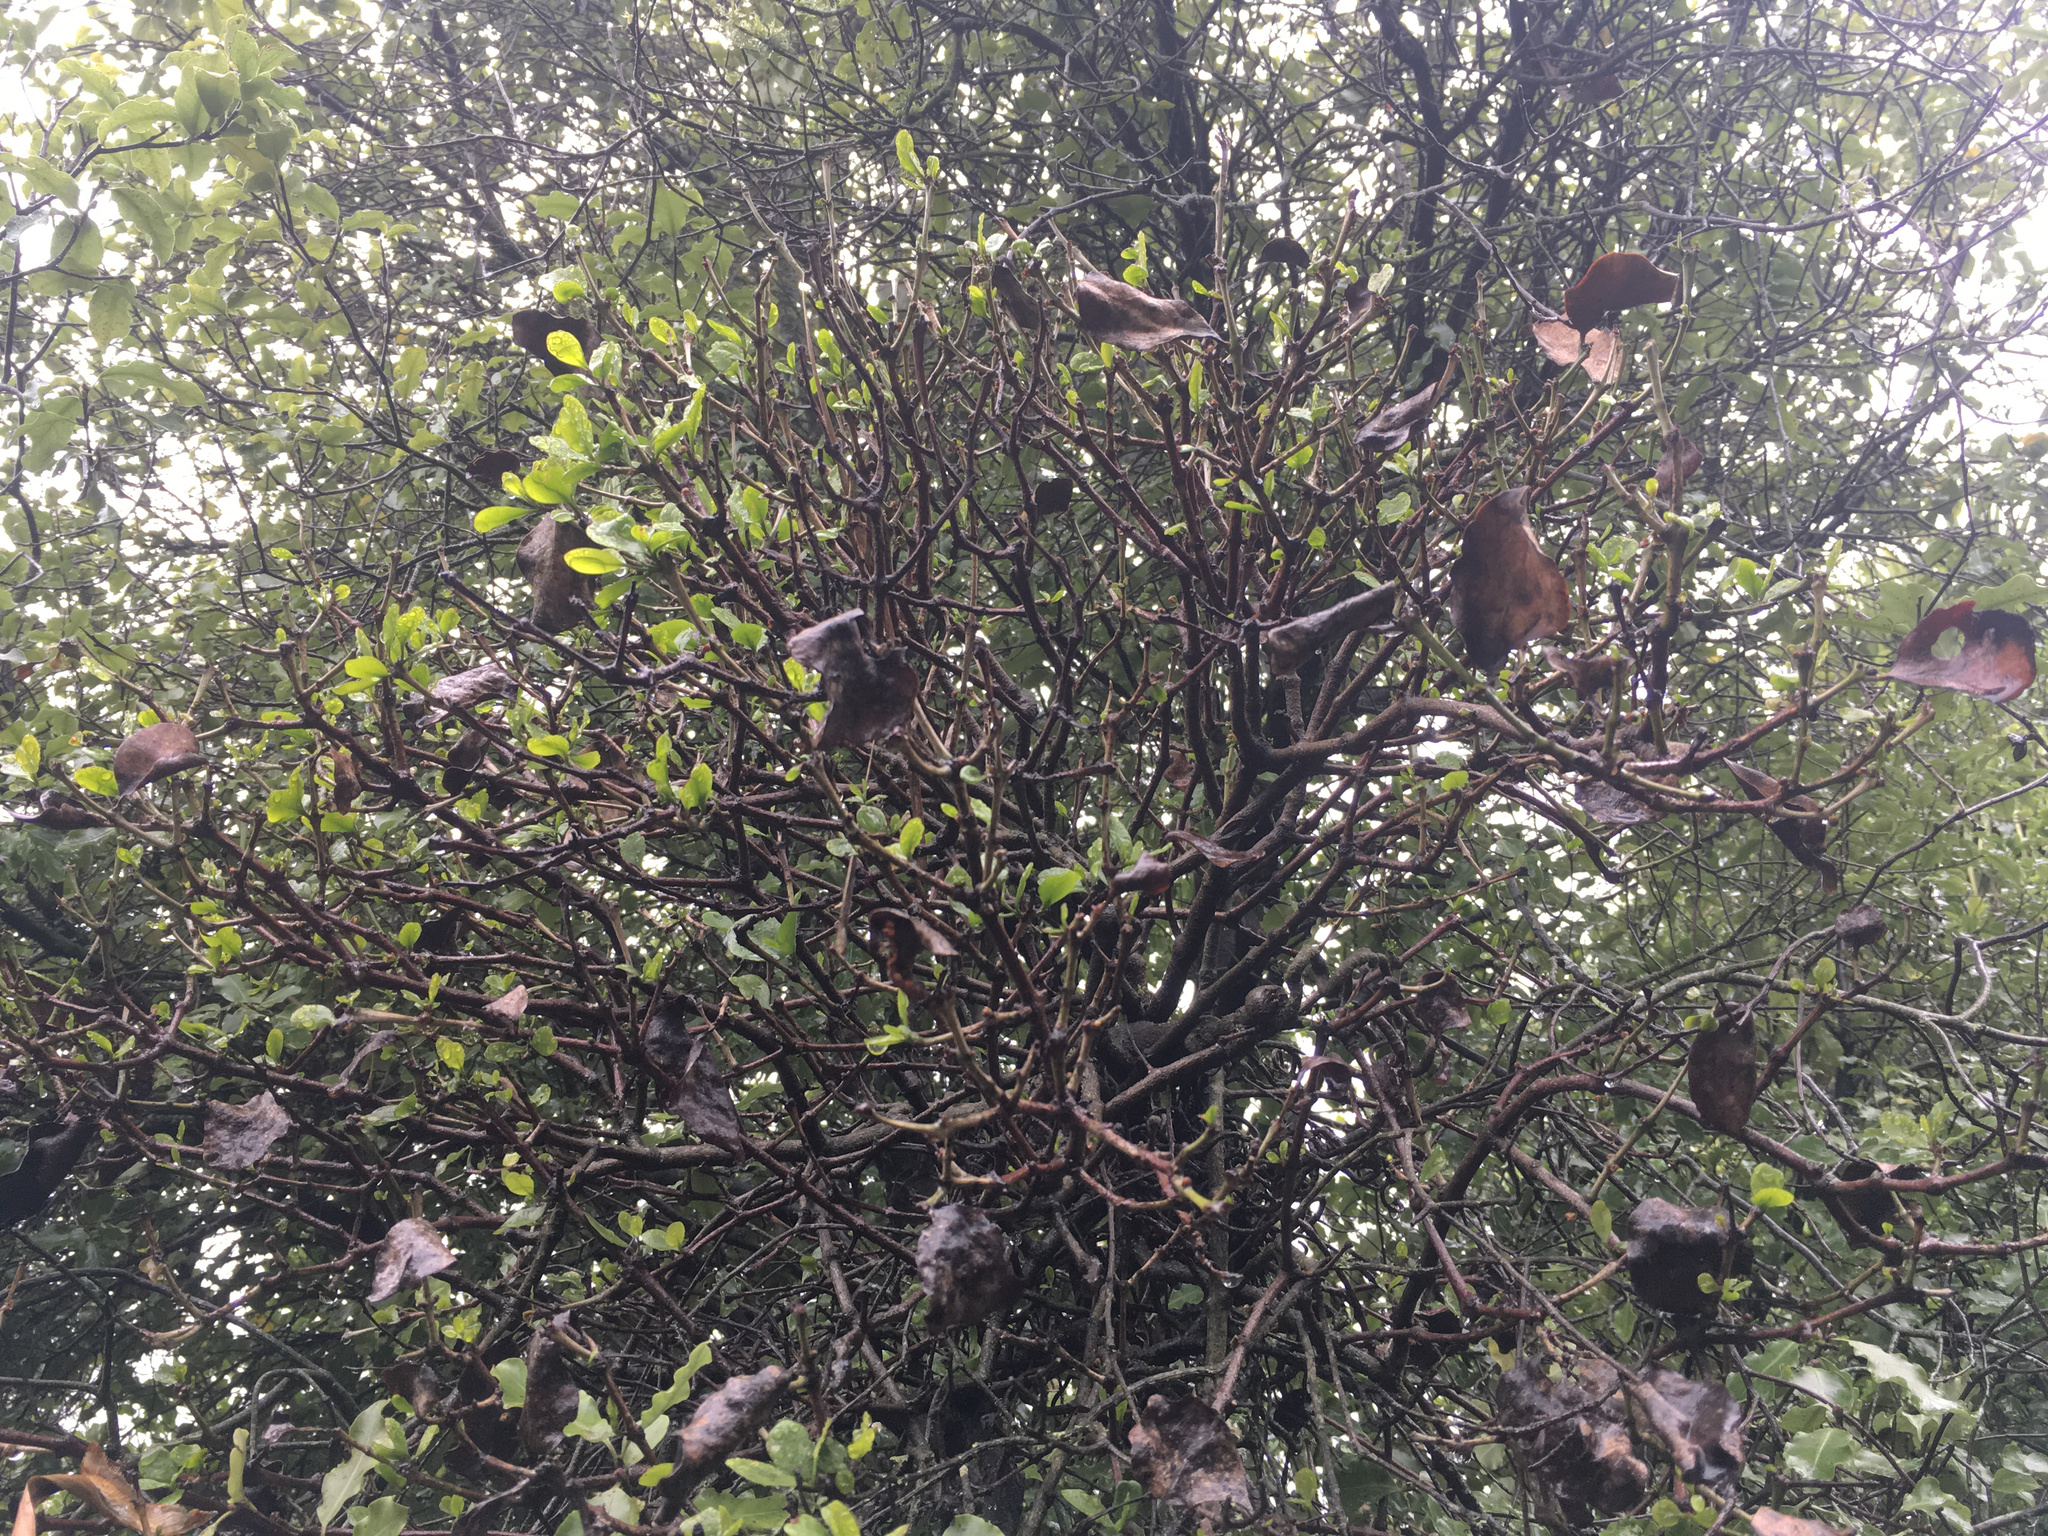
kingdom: Plantae
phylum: Tracheophyta
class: Magnoliopsida
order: Santalales
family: Loranthaceae
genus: Ileostylus
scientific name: Ileostylus micranthus
